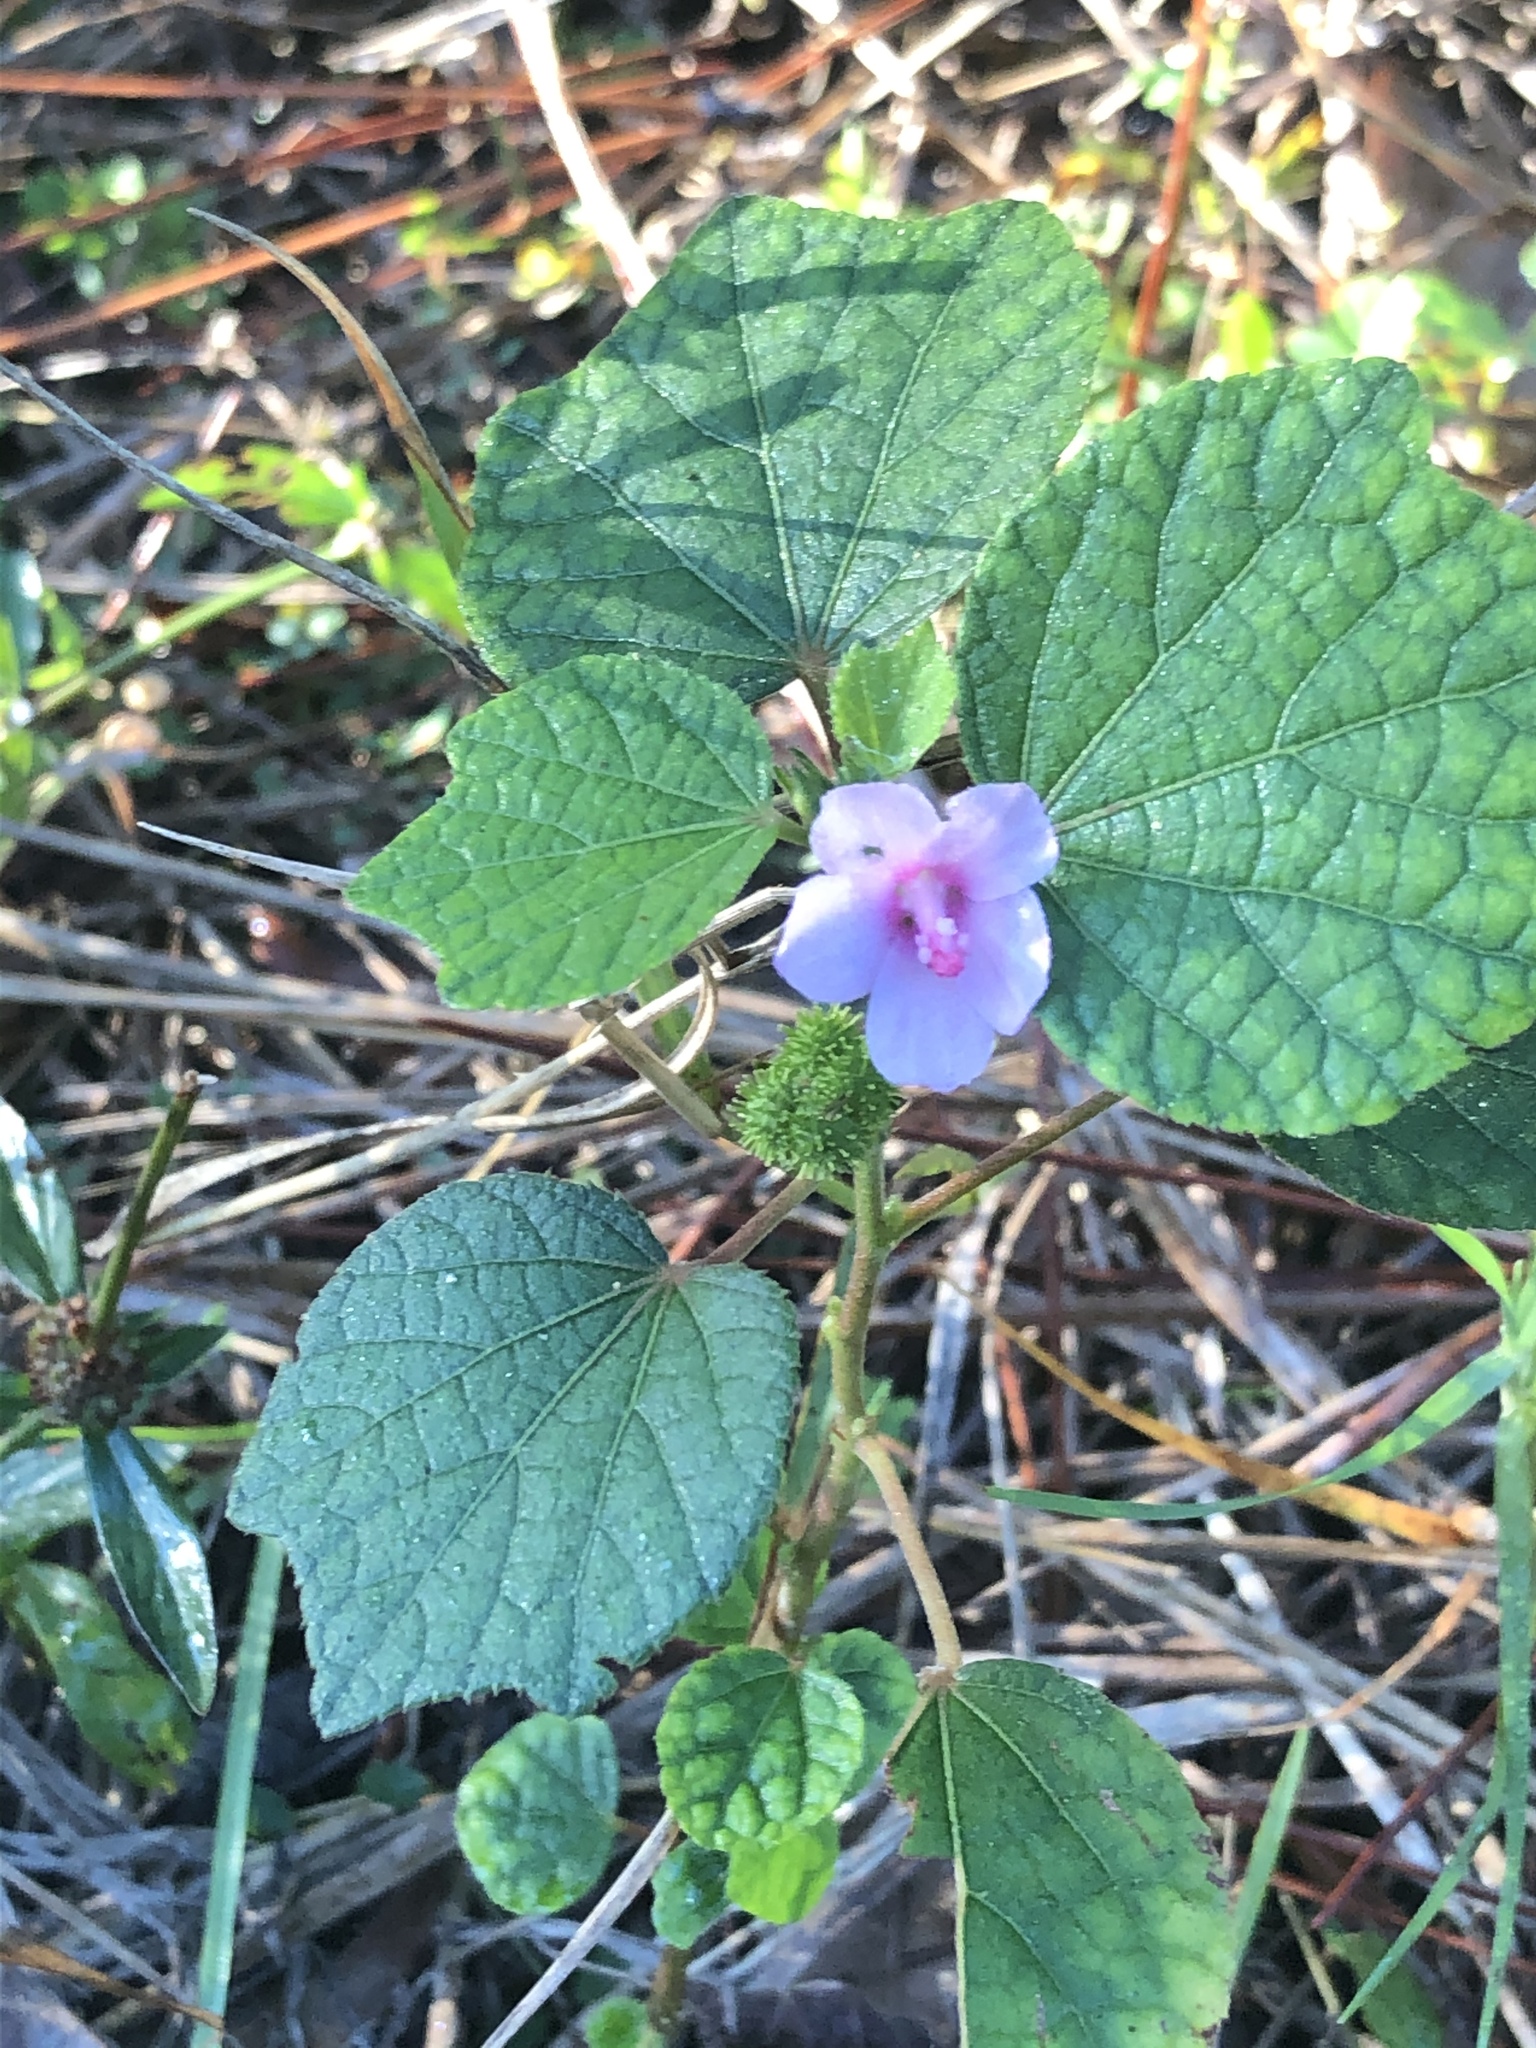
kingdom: Plantae
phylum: Tracheophyta
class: Magnoliopsida
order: Malvales
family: Malvaceae
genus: Urena
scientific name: Urena lobata
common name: Caesarweed
